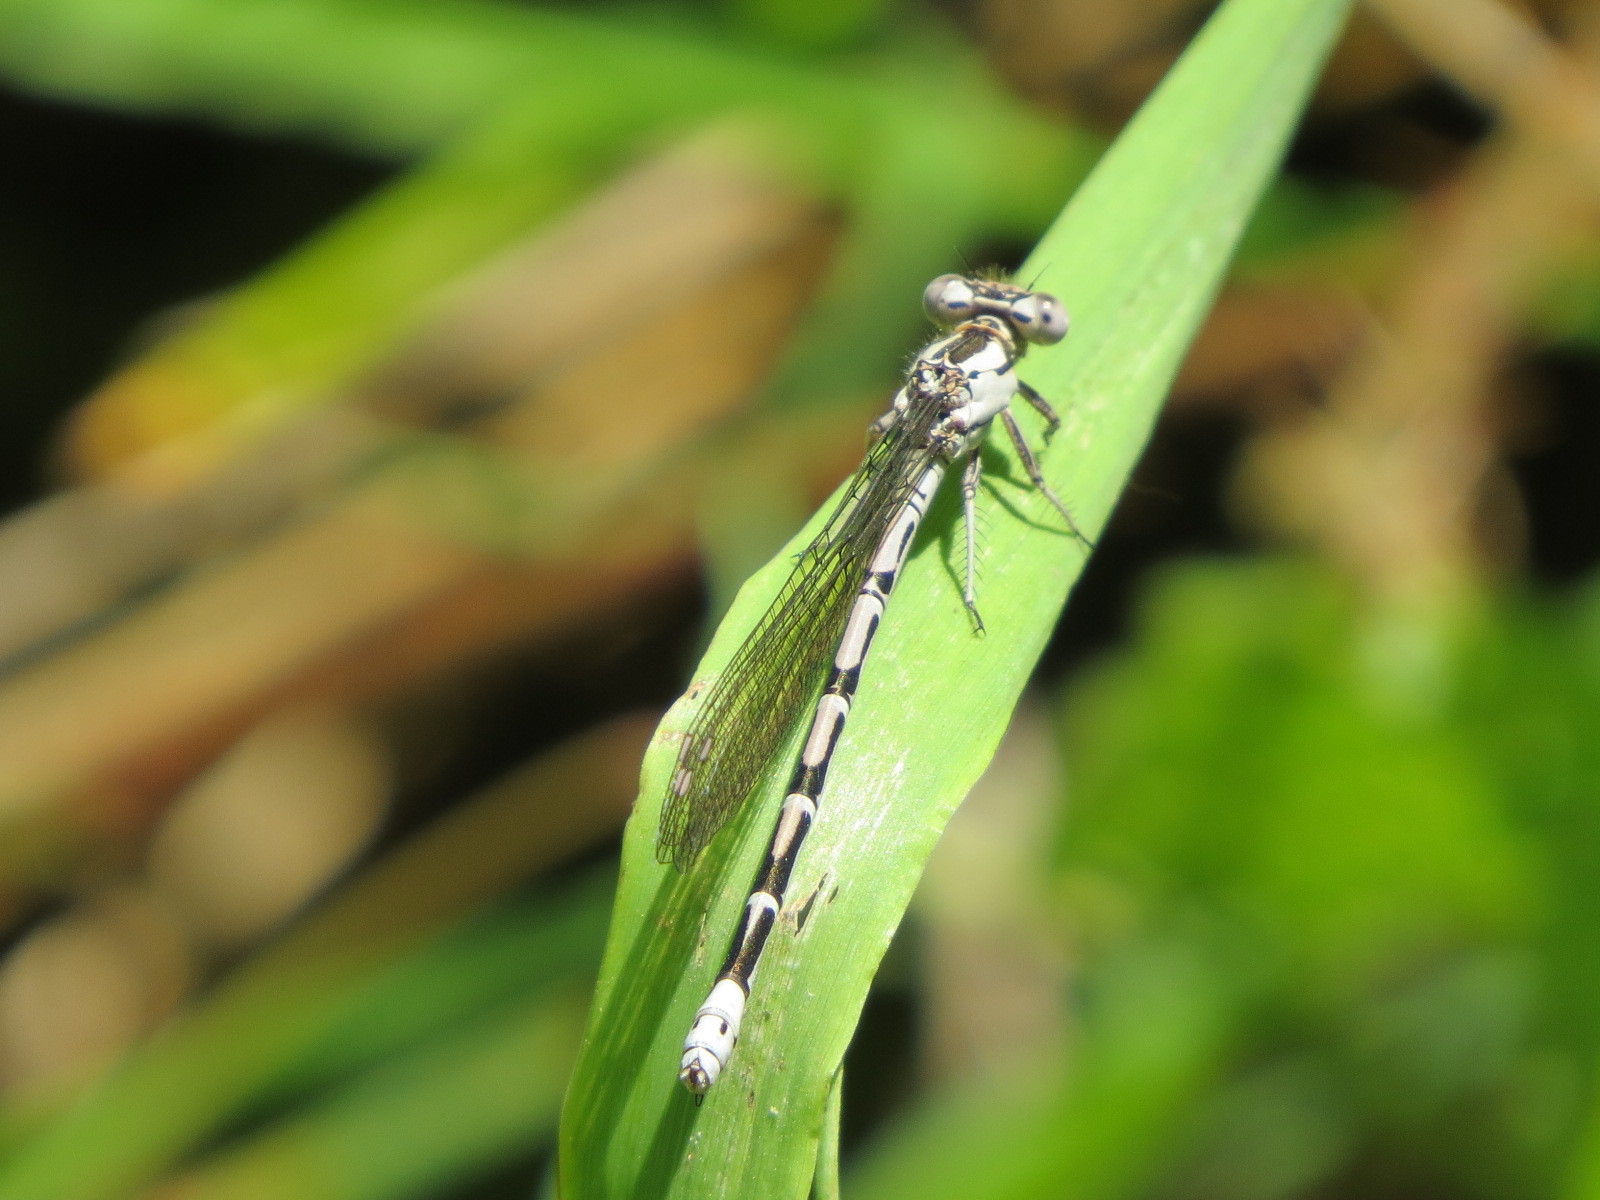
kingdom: Animalia
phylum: Arthropoda
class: Insecta
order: Odonata
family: Coenagrionidae
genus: Argia
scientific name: Argia vivida
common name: Vivid dancer
